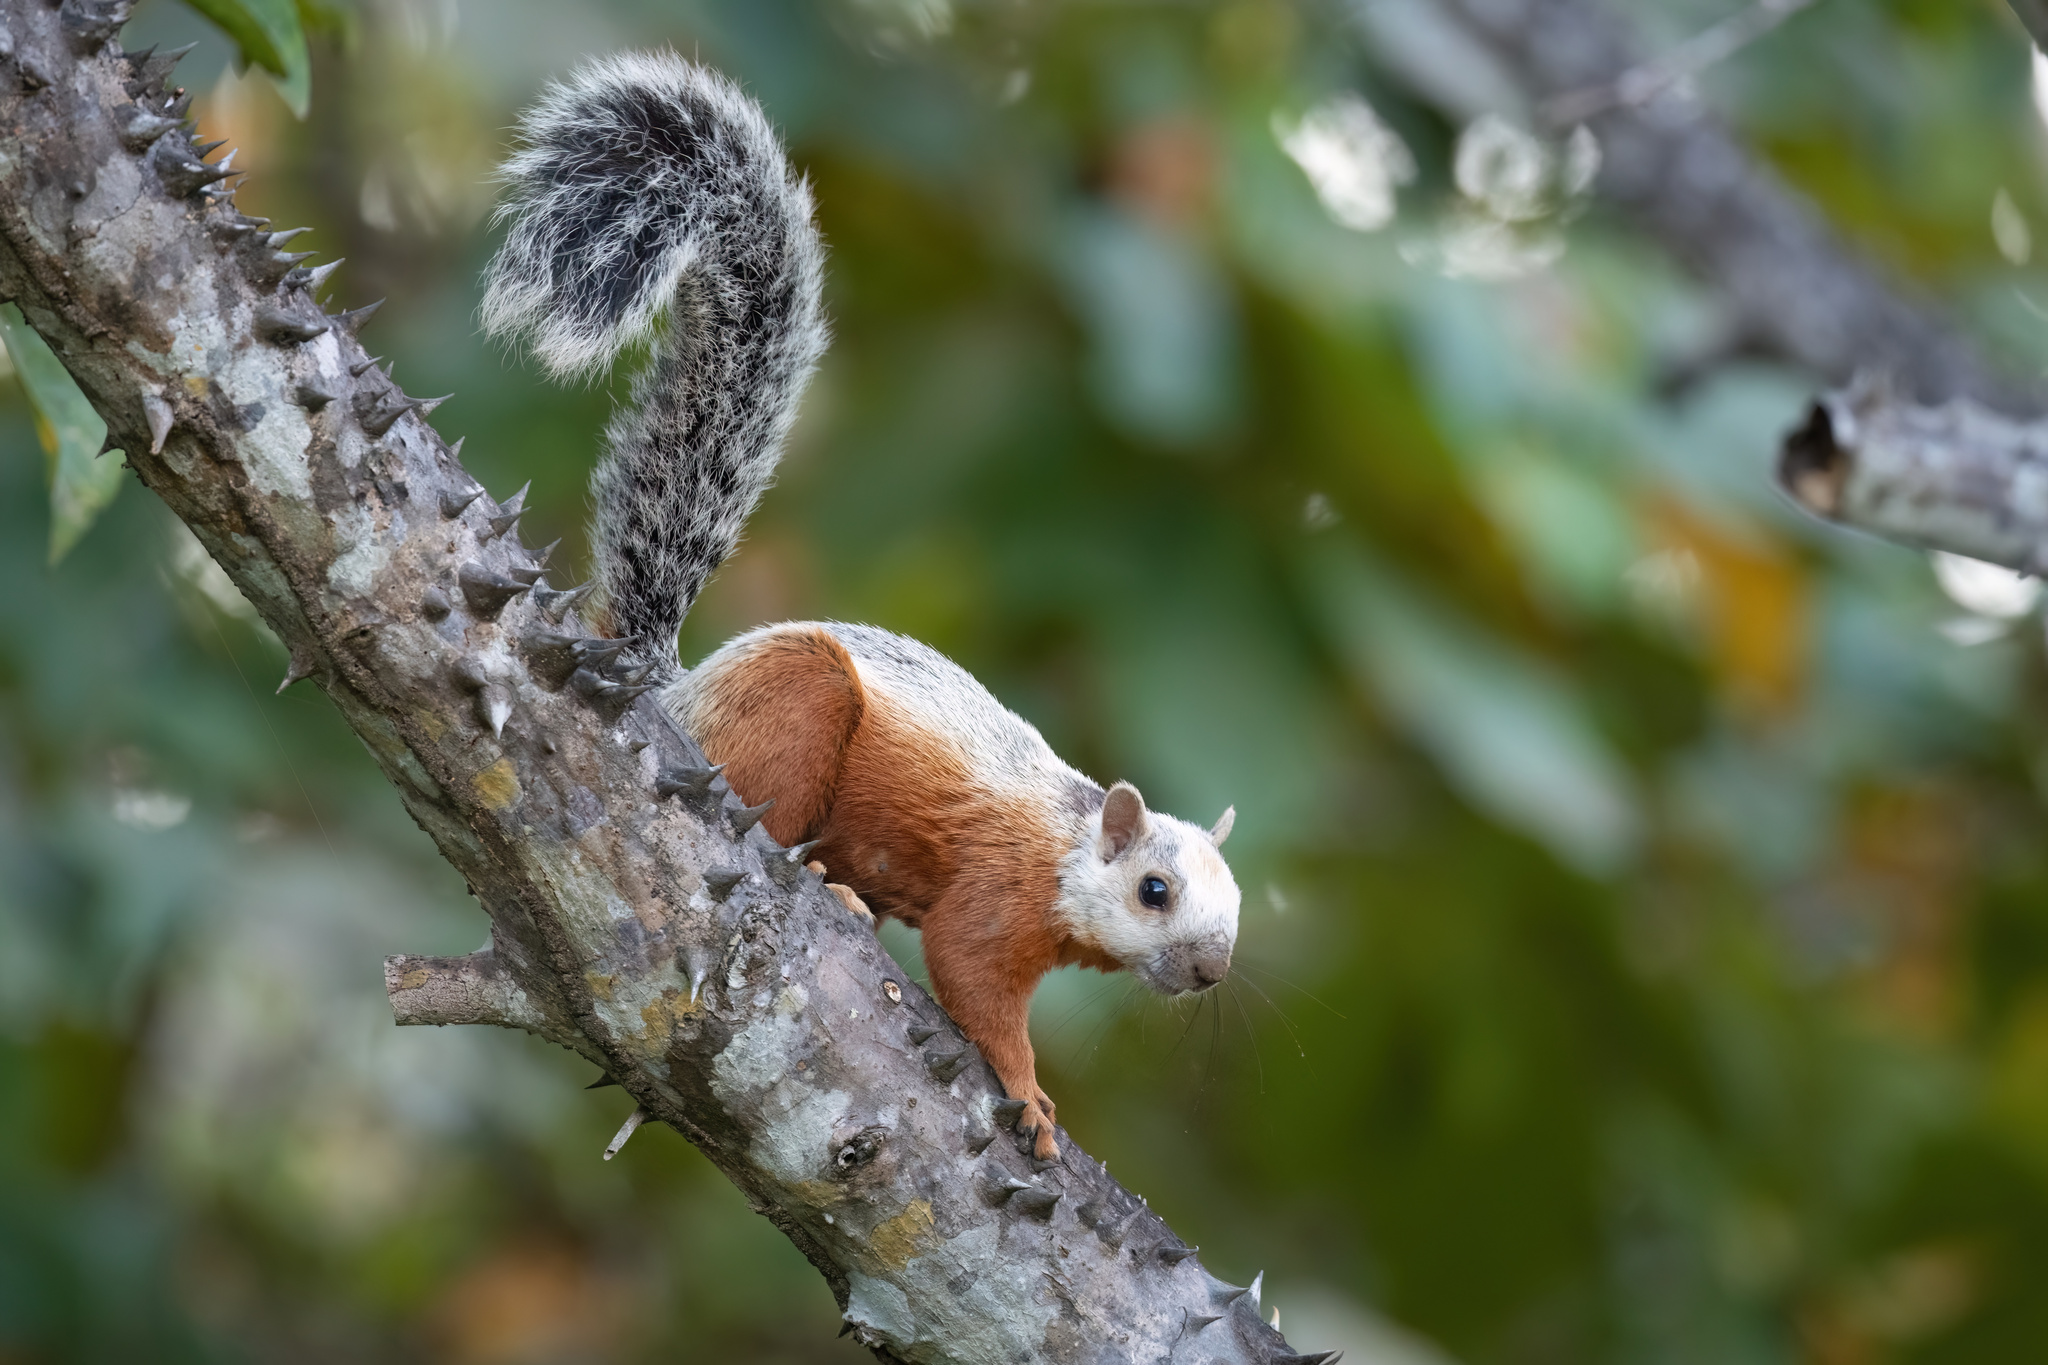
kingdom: Animalia
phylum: Chordata
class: Mammalia
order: Rodentia
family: Sciuridae
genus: Sciurus
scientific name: Sciurus variegatoides
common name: Variegated squirrel
